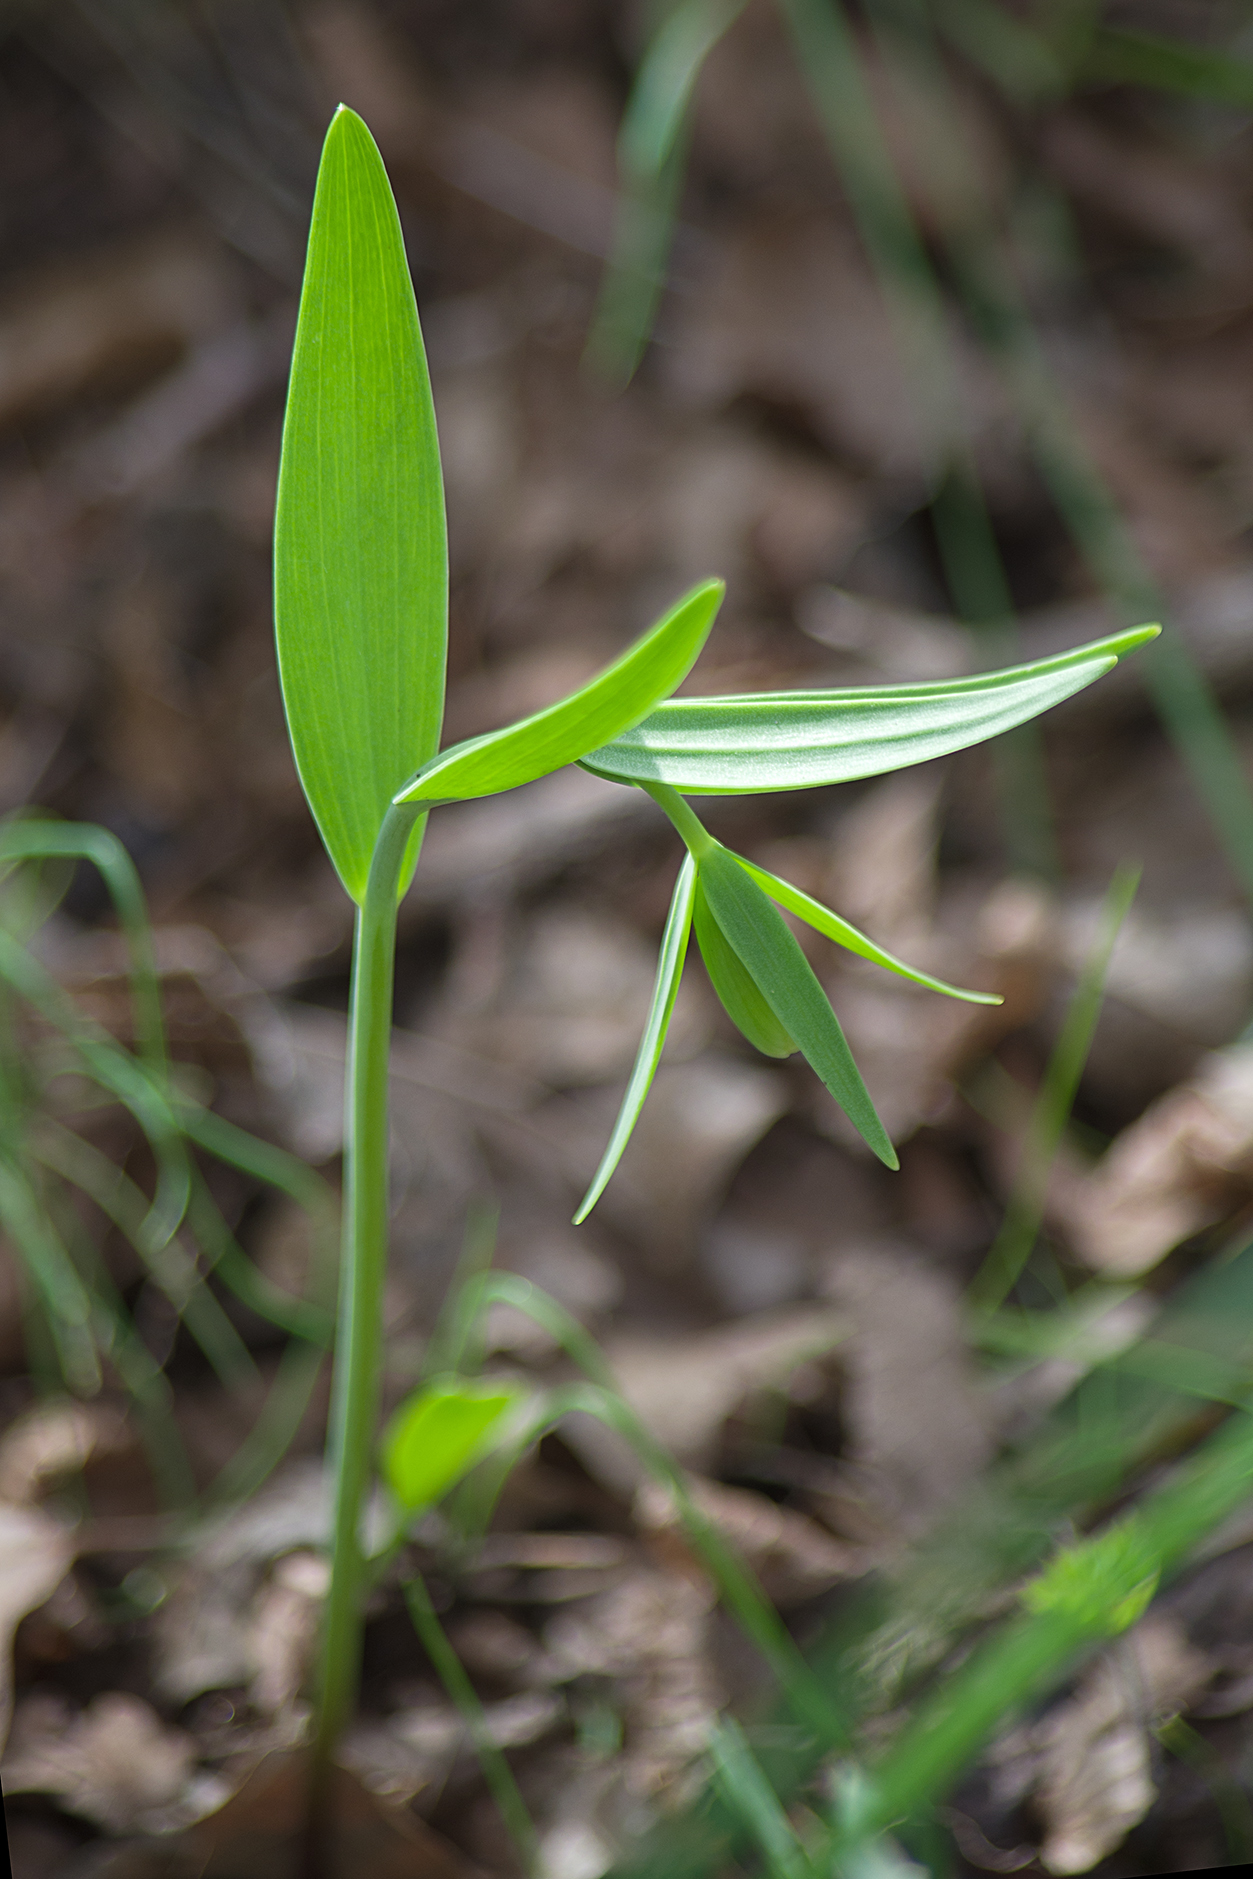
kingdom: Plantae
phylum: Tracheophyta
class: Liliopsida
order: Liliales
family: Liliaceae
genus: Fritillaria
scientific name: Fritillaria pontica
